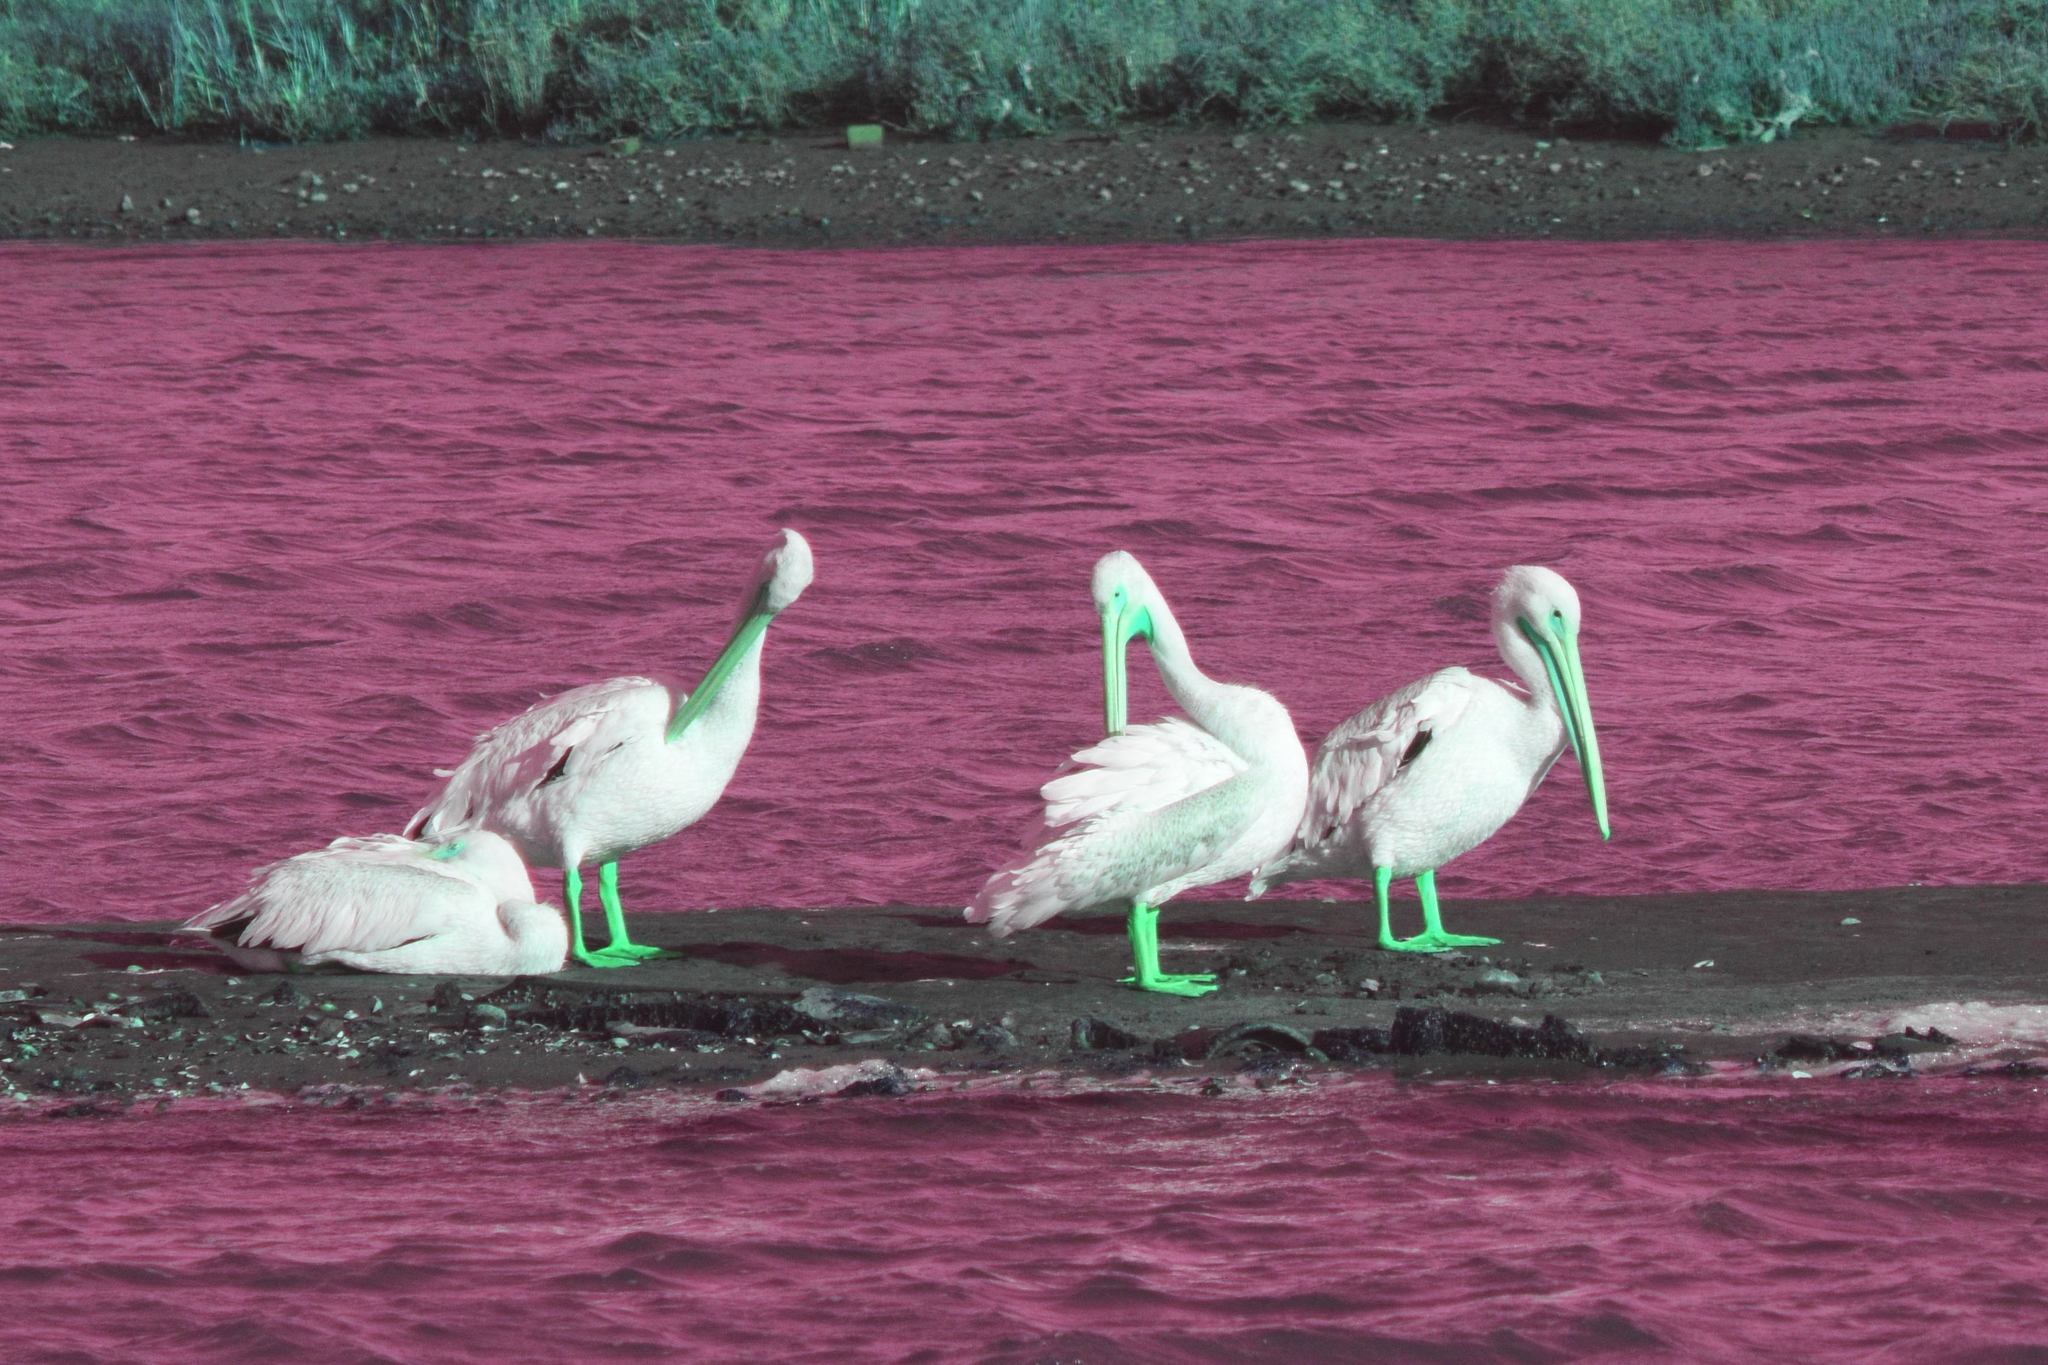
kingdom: Animalia
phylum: Chordata
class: Aves
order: Pelecaniformes
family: Pelecanidae
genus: Pelecanus
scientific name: Pelecanus erythrorhynchos
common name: American white pelican
